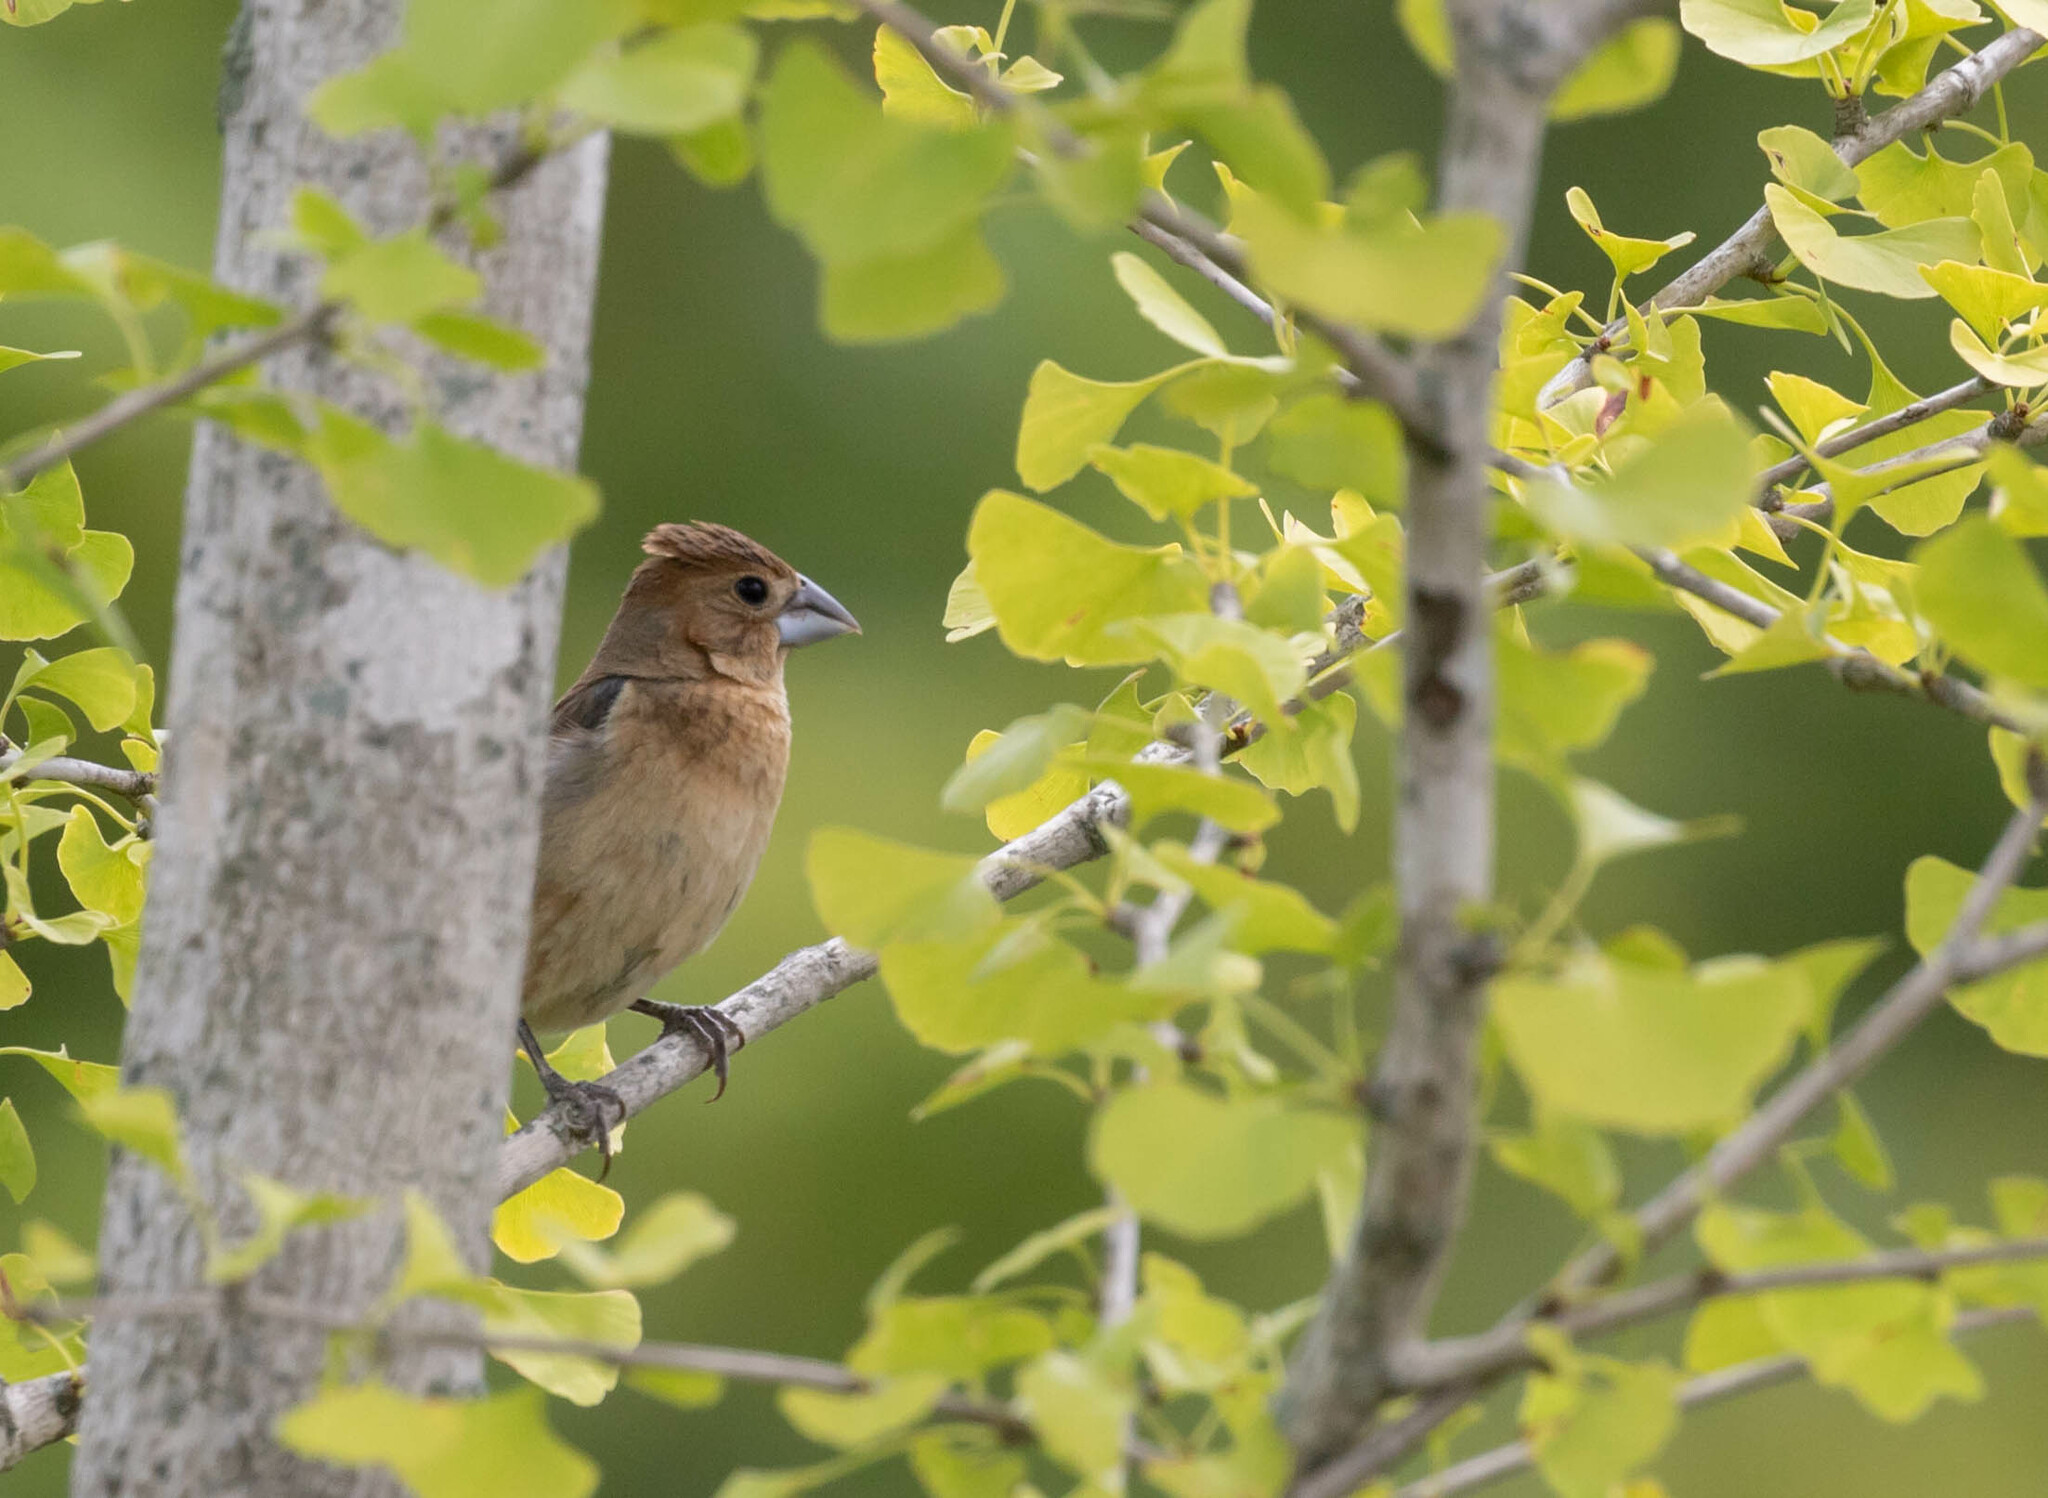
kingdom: Animalia
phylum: Chordata
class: Aves
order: Passeriformes
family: Cardinalidae
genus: Passerina
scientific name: Passerina caerulea
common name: Blue grosbeak
